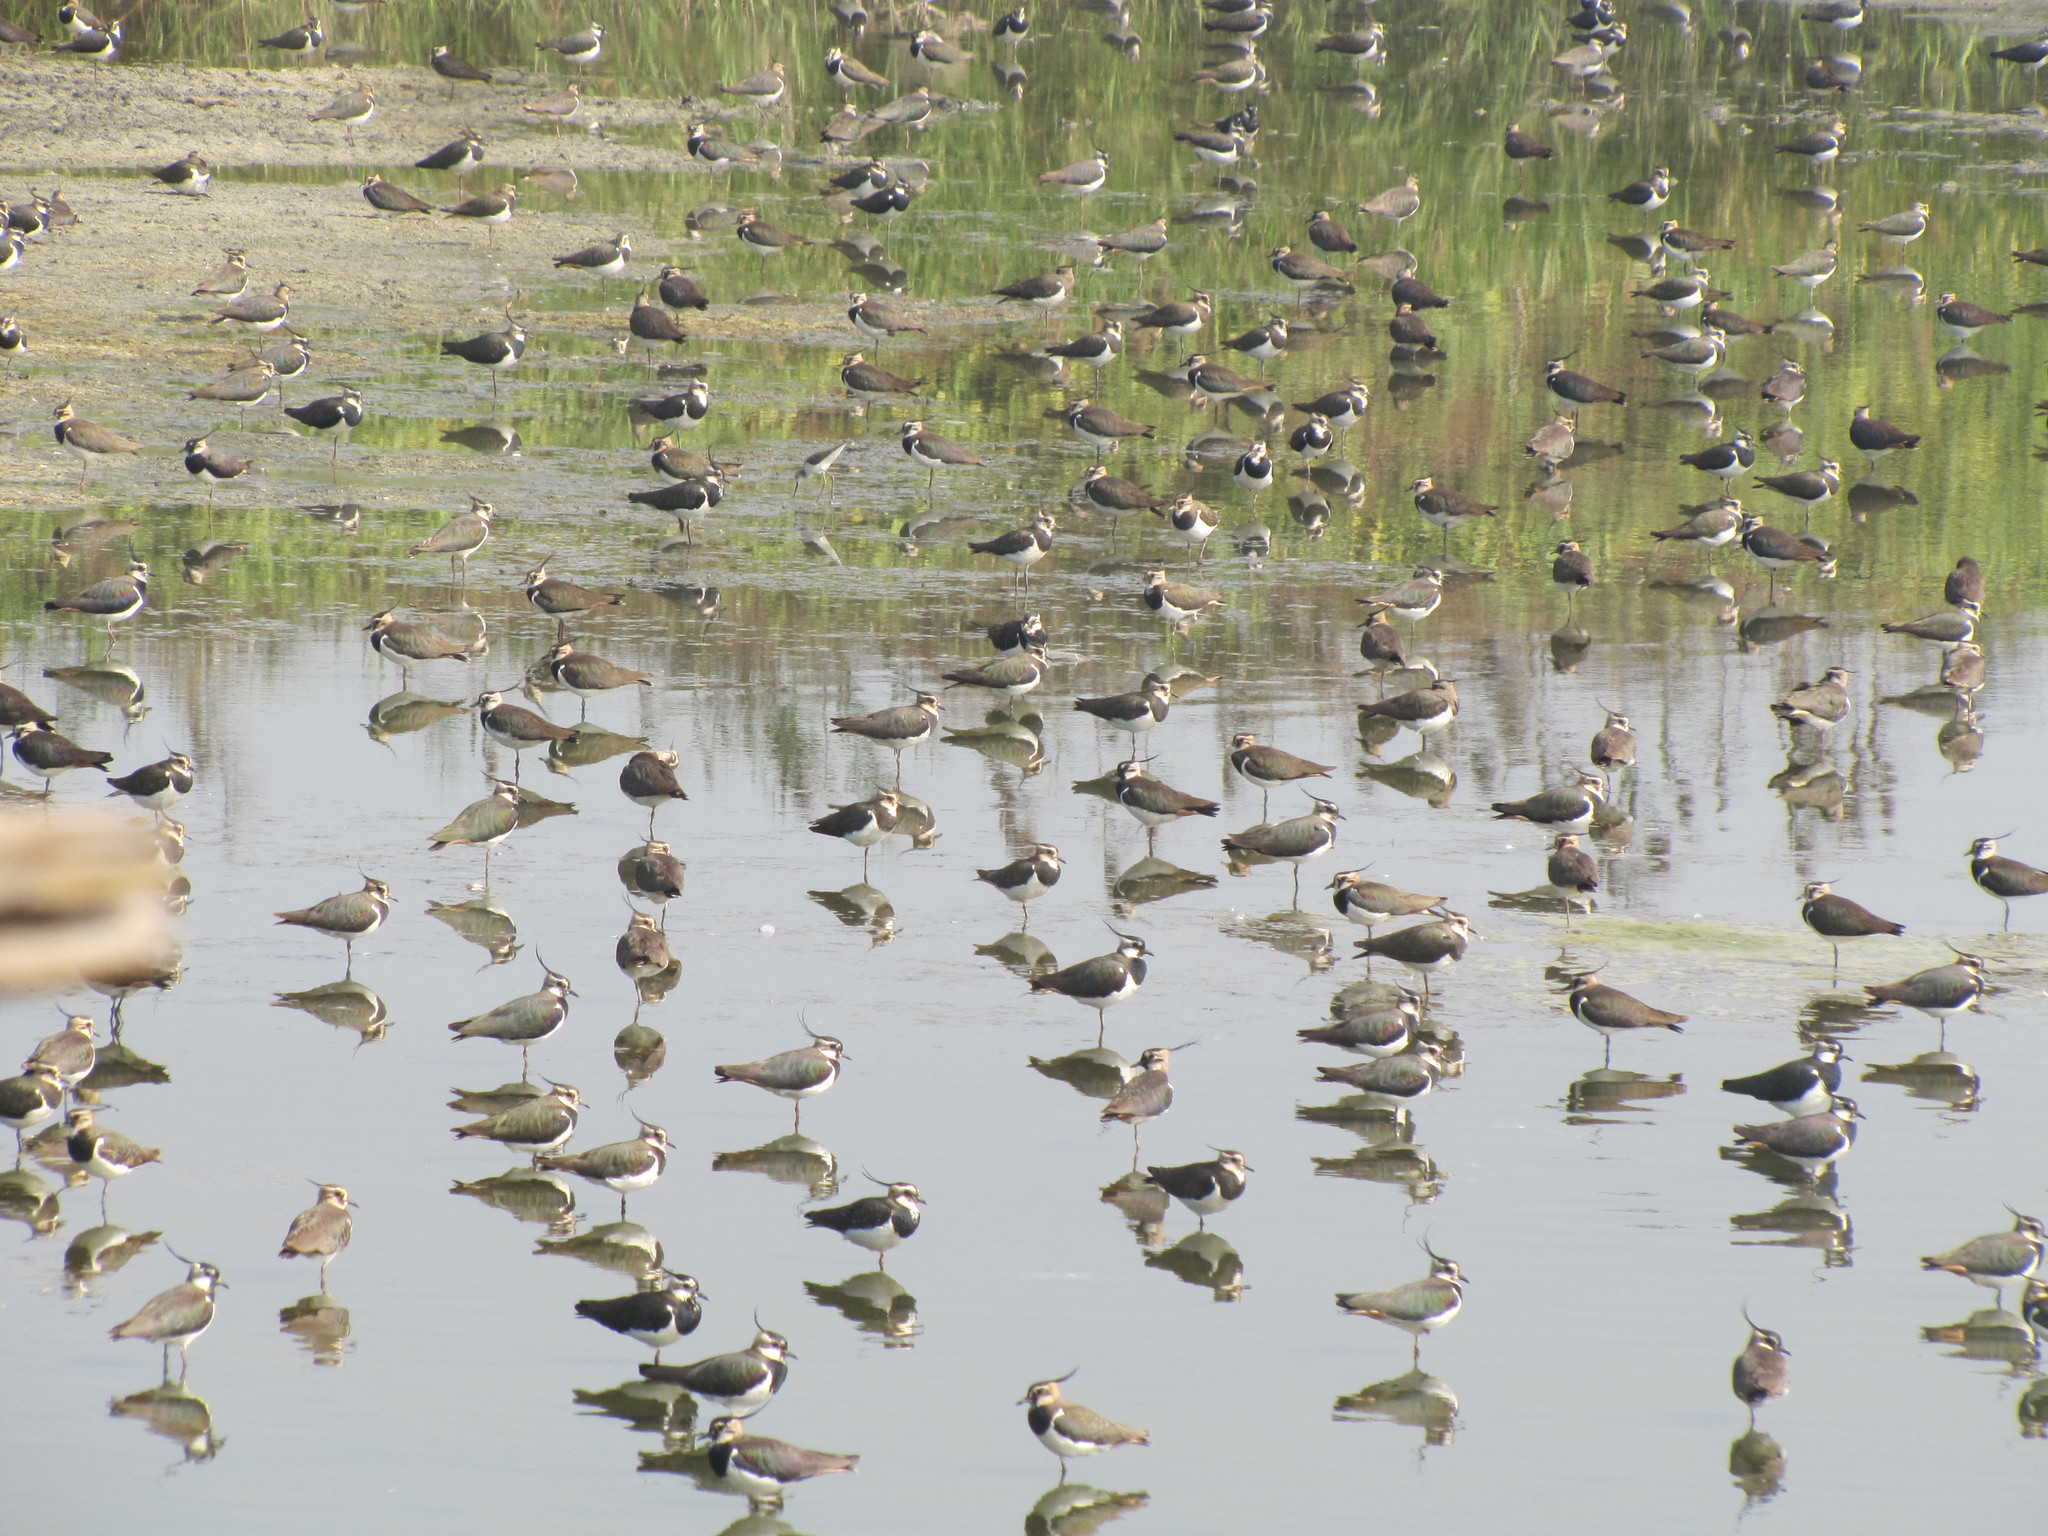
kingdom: Animalia
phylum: Chordata
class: Aves
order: Charadriiformes
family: Charadriidae
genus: Vanellus
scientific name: Vanellus vanellus
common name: Northern lapwing
